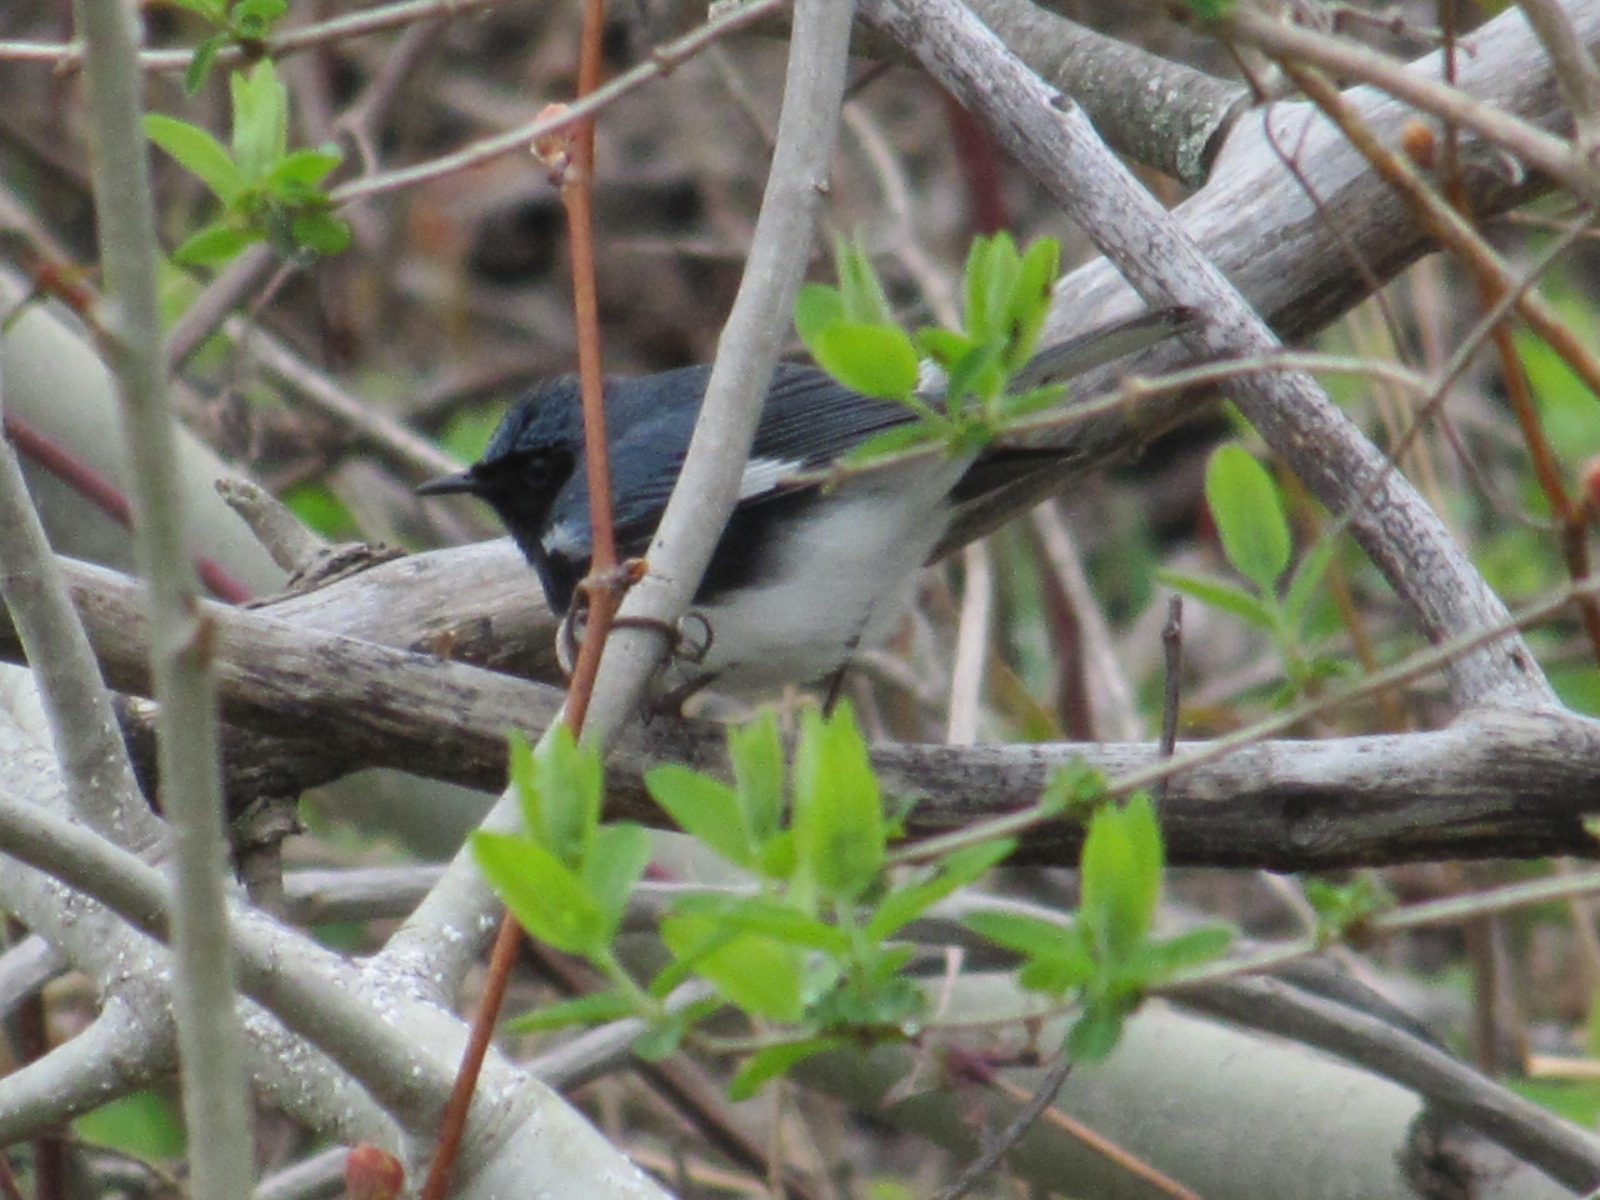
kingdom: Animalia
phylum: Chordata
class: Aves
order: Passeriformes
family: Parulidae
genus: Setophaga
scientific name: Setophaga caerulescens
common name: Black-throated blue warbler
